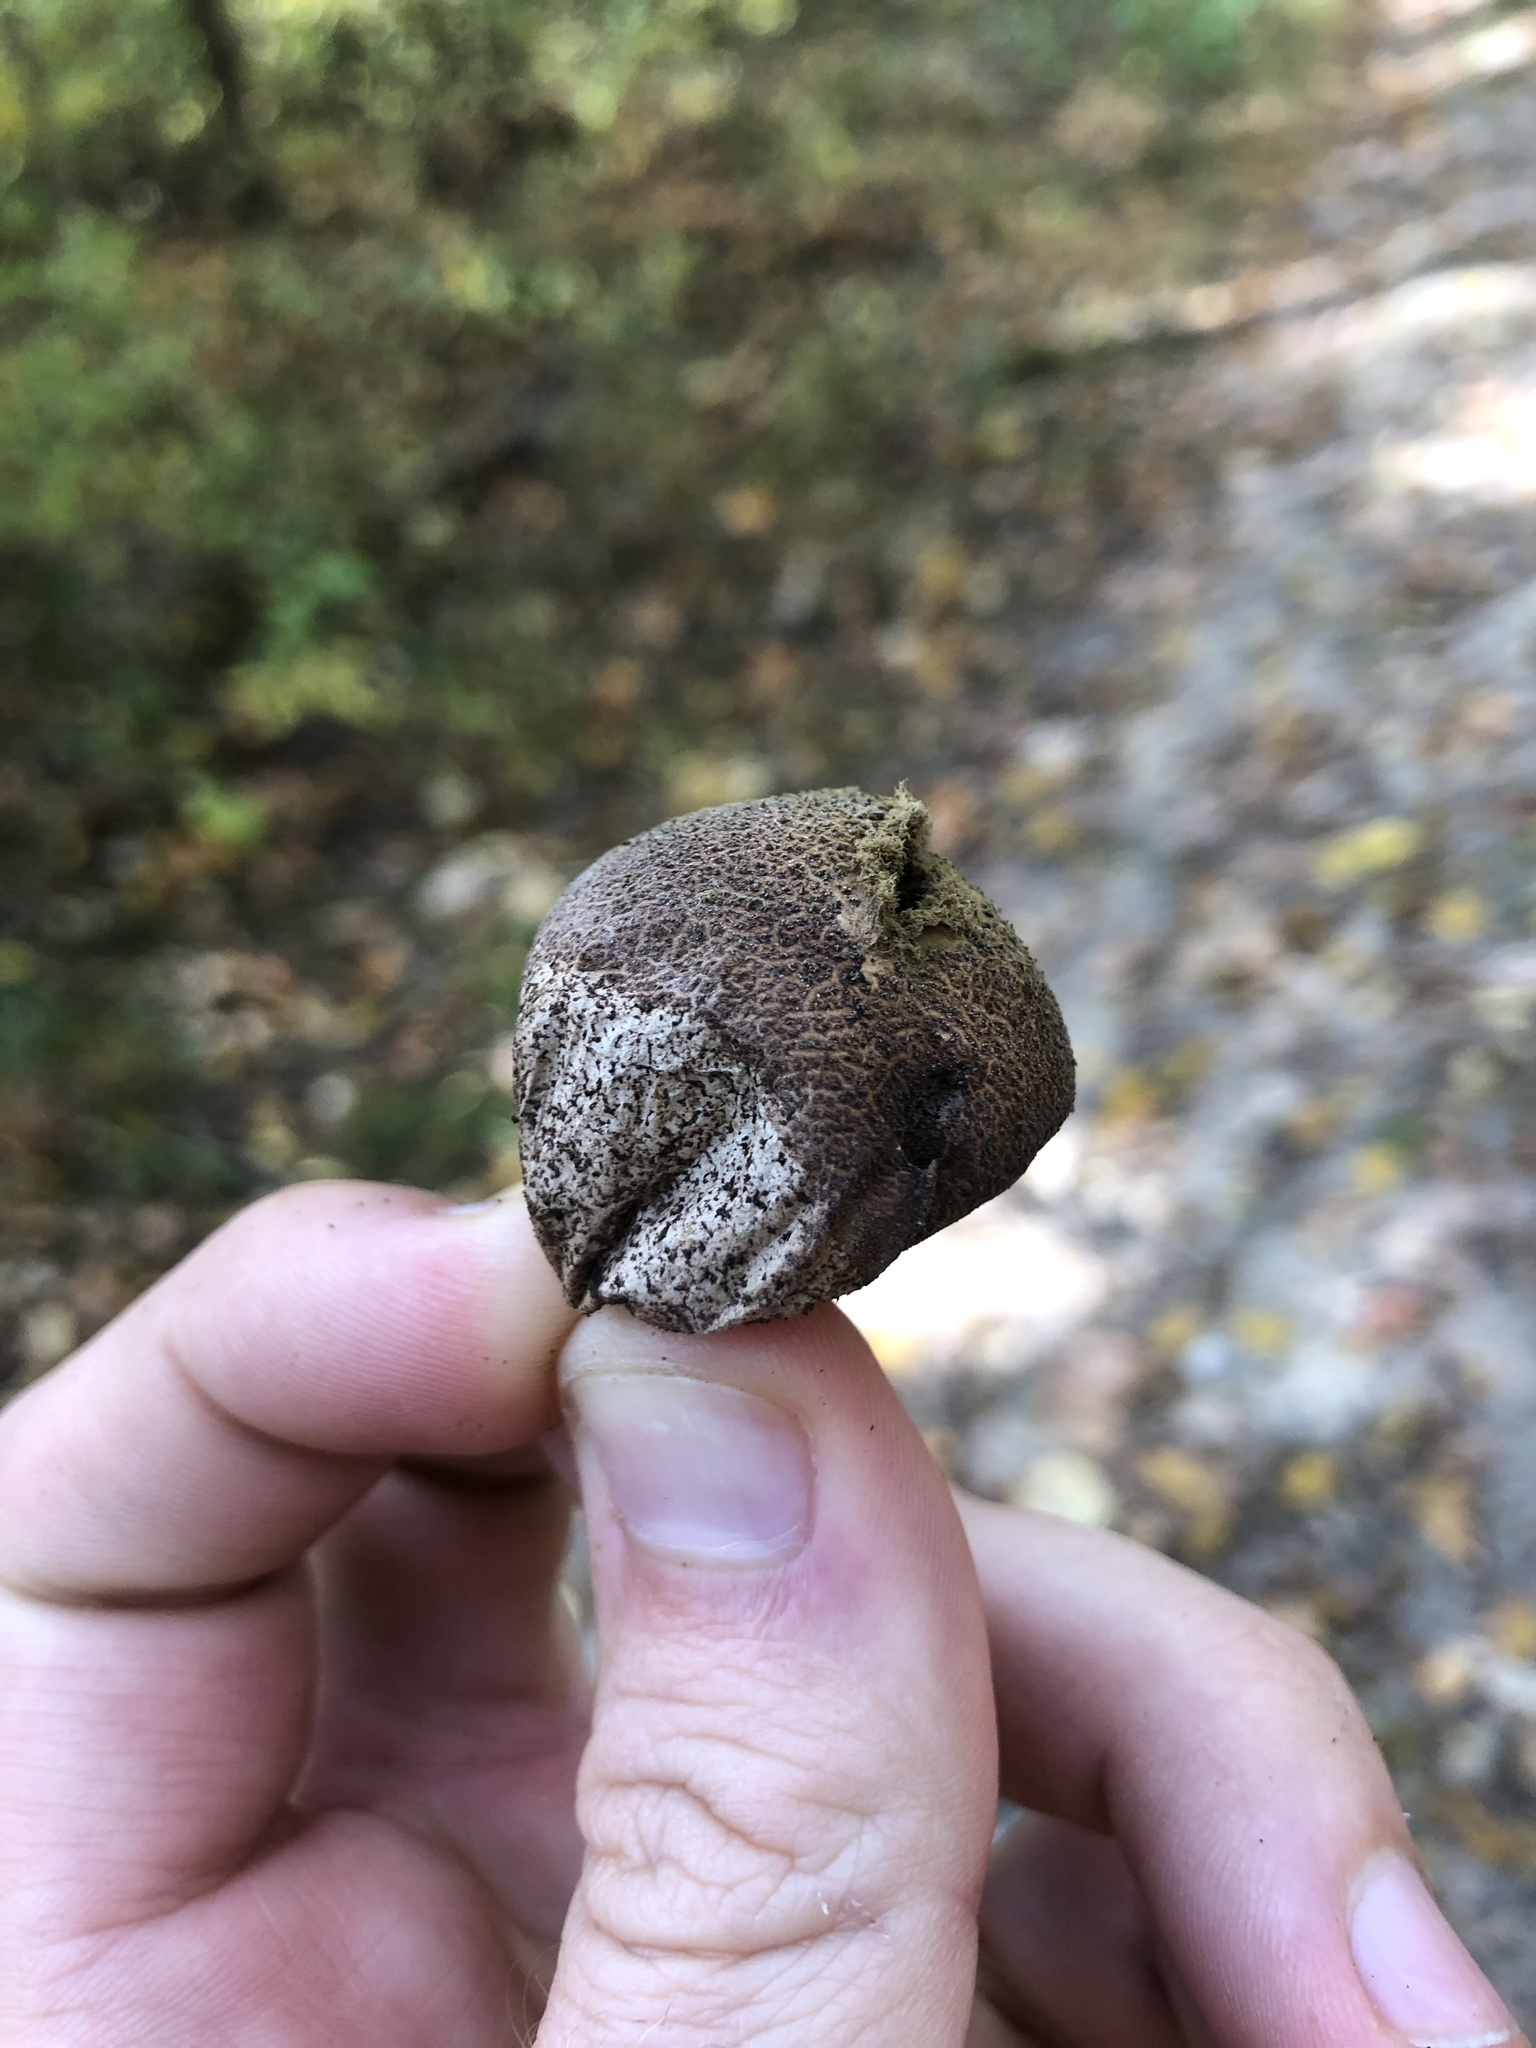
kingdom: Fungi
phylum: Basidiomycota
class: Agaricomycetes
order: Agaricales
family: Lycoperdaceae
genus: Apioperdon
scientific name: Apioperdon pyriforme
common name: Pear-shaped puffball
